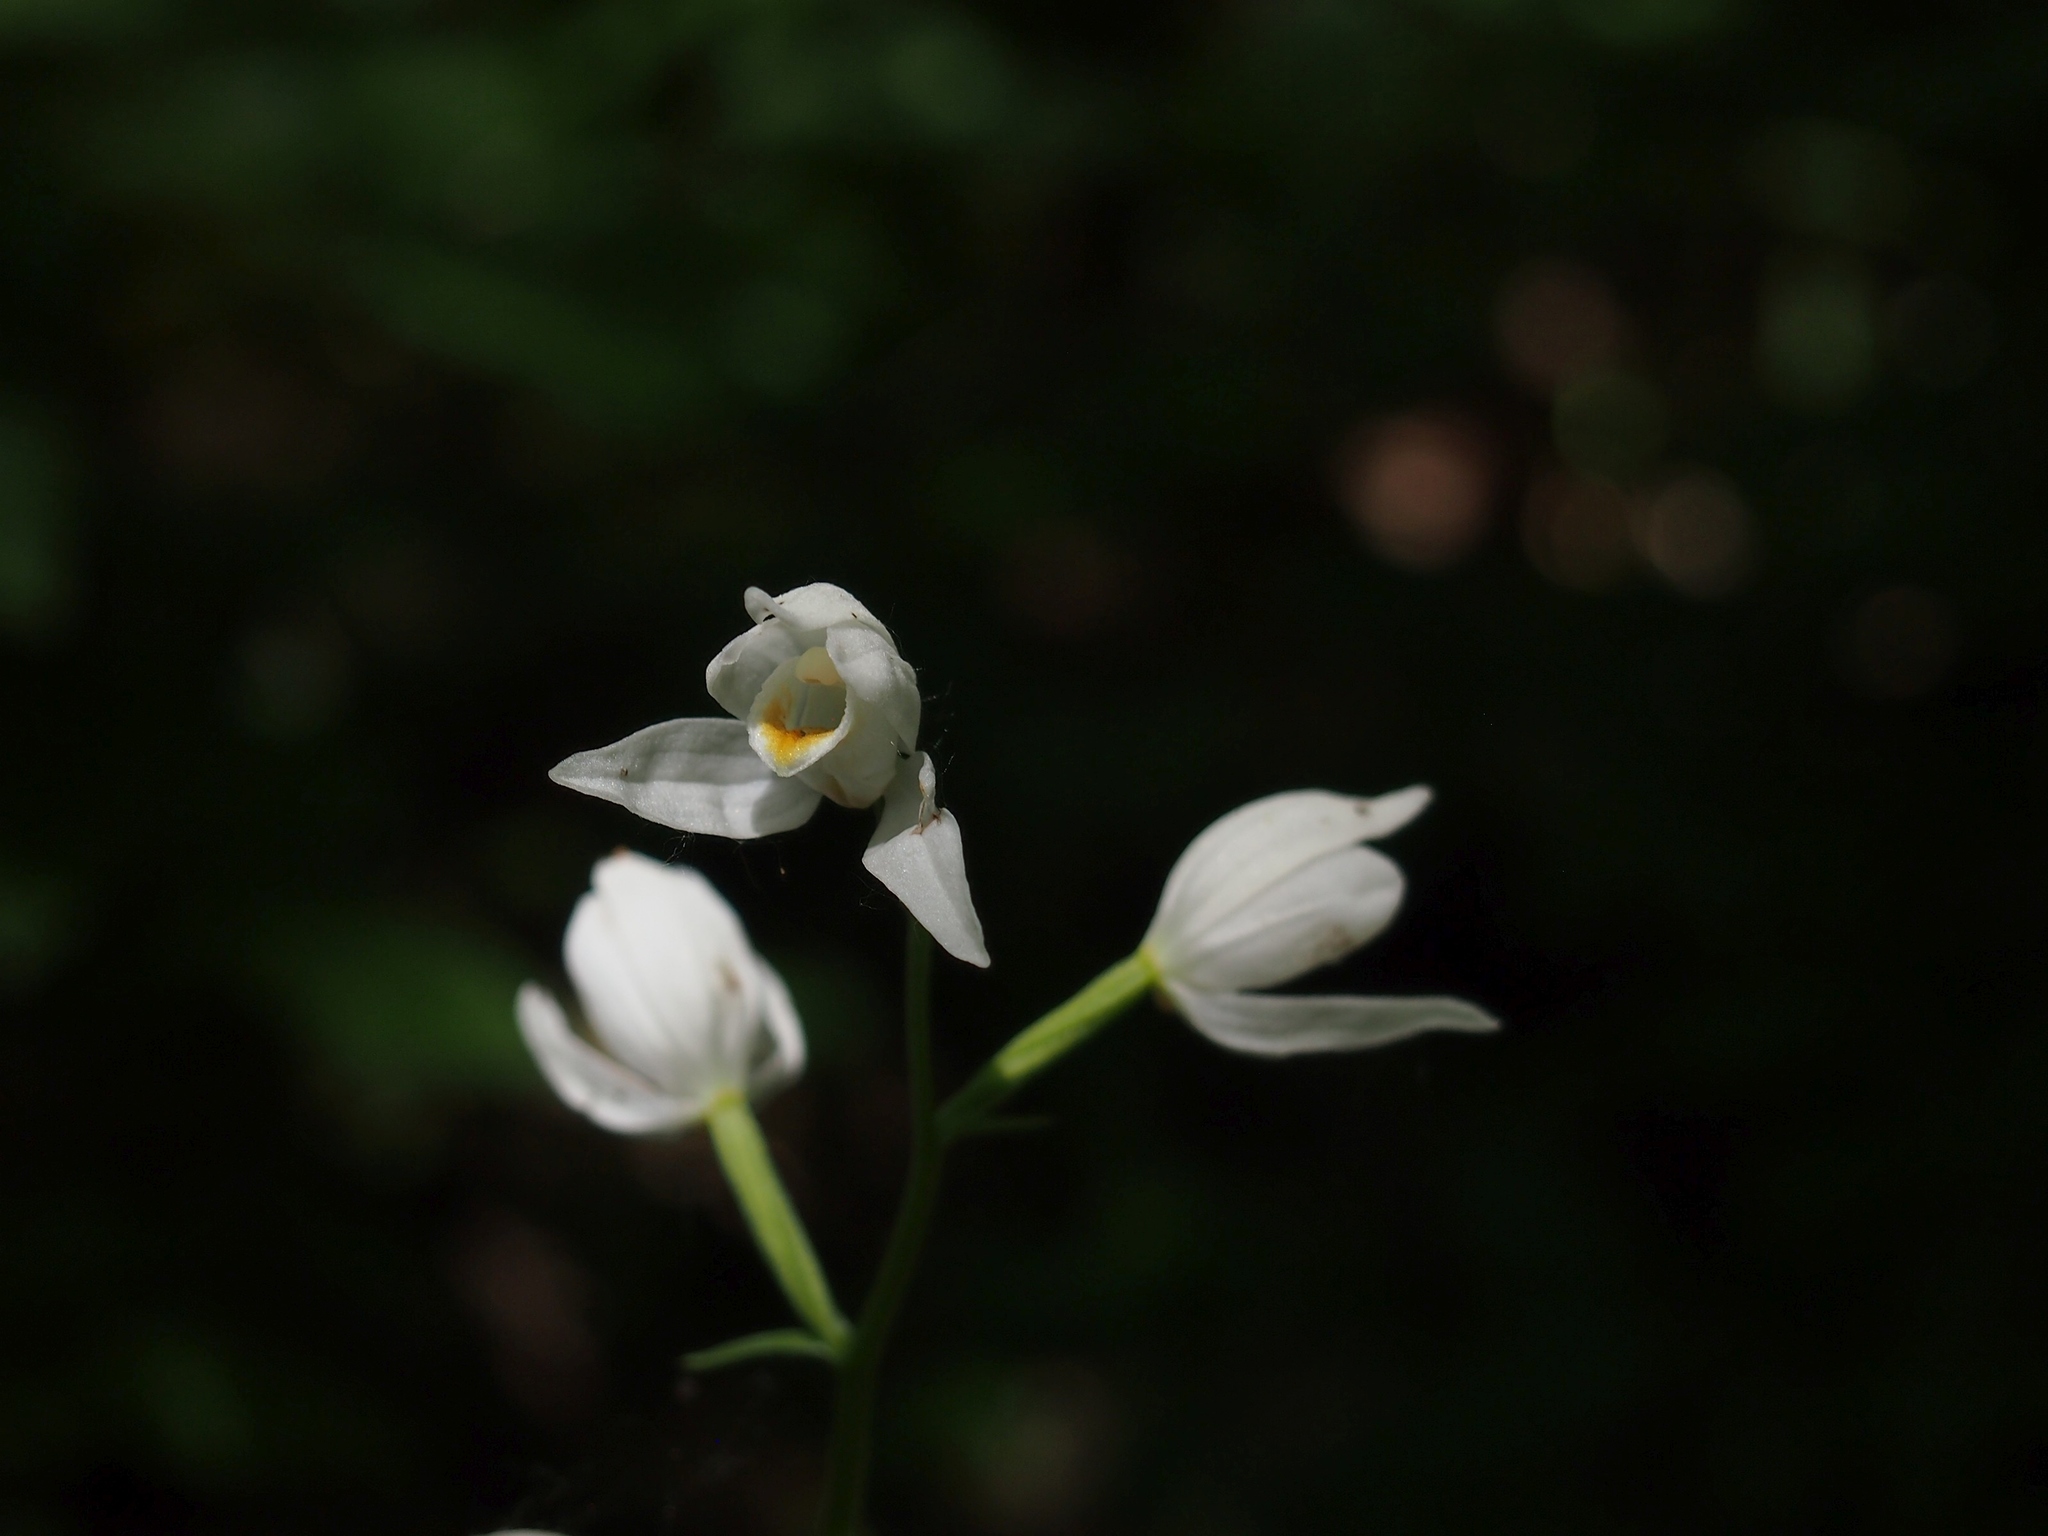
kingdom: Plantae
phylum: Tracheophyta
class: Liliopsida
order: Asparagales
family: Orchidaceae
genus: Cephalanthera
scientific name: Cephalanthera longifolia
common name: Narrow-leaved helleborine
